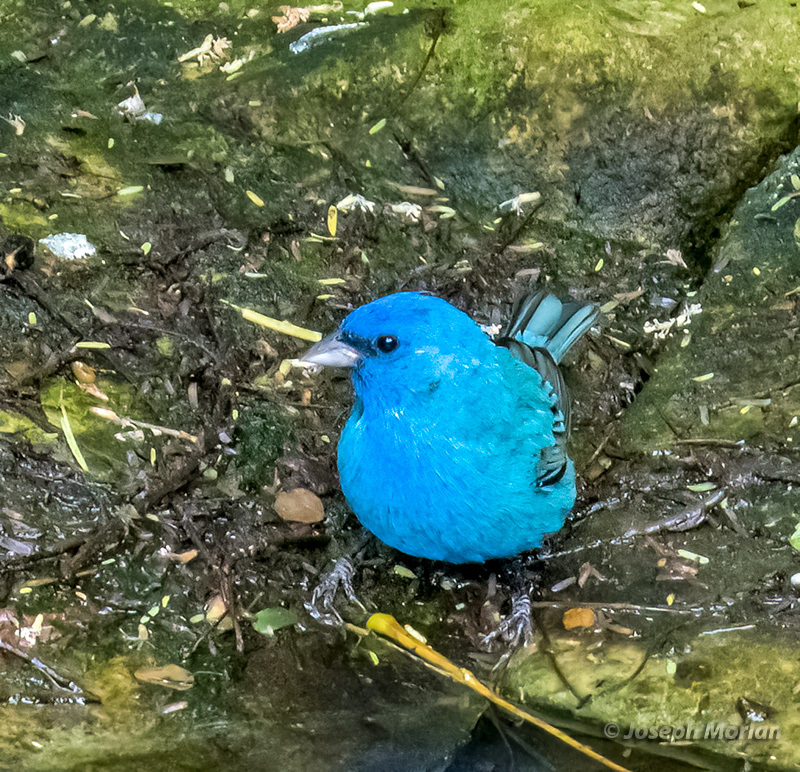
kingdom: Animalia
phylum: Chordata
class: Aves
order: Passeriformes
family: Cardinalidae
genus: Passerina
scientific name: Passerina cyanea
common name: Indigo bunting
